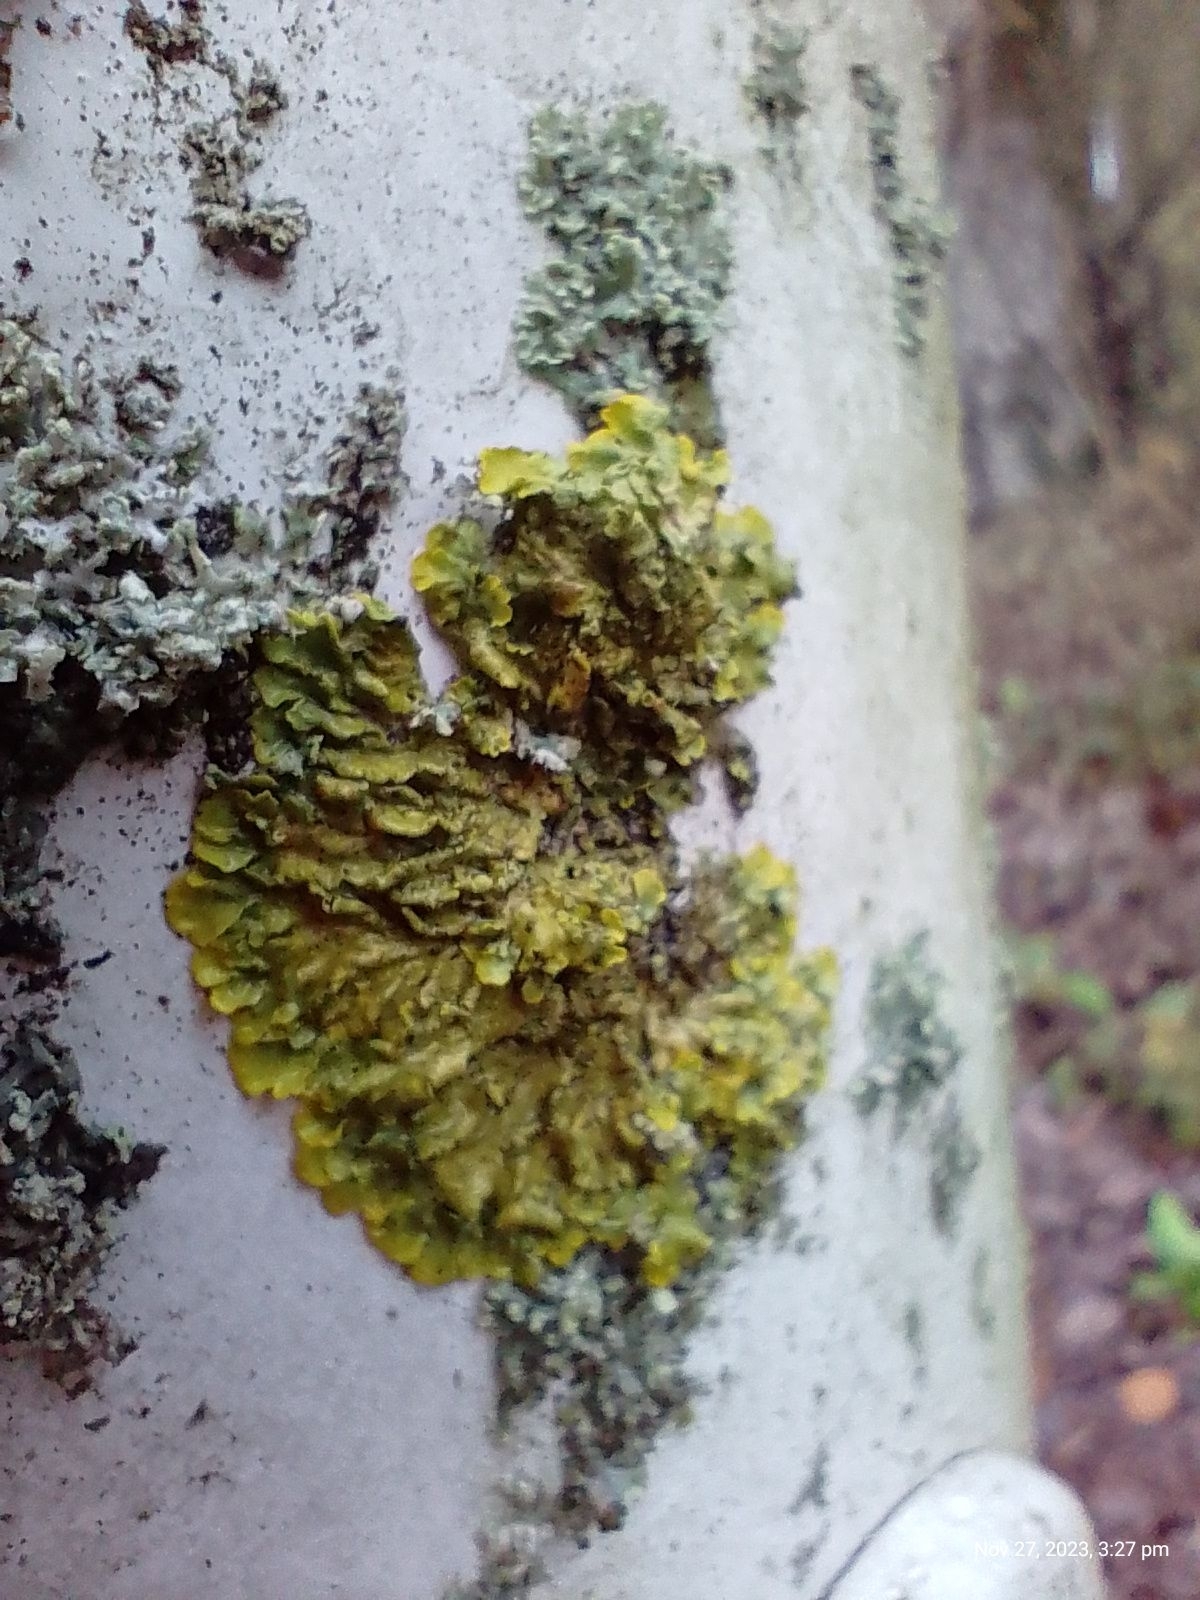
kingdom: Fungi
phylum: Ascomycota
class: Lecanoromycetes
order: Teloschistales
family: Teloschistaceae
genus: Xanthoria
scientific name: Xanthoria parietina
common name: Common orange lichen
